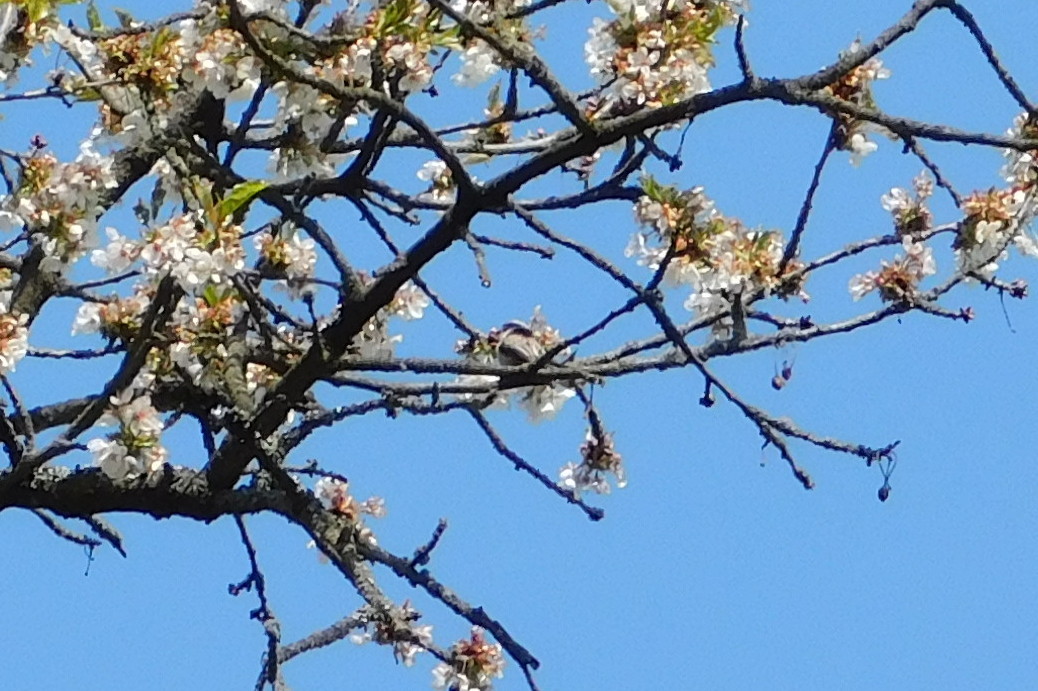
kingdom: Animalia
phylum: Chordata
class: Aves
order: Passeriformes
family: Aegithalidae
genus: Aegithalos
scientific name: Aegithalos caudatus
